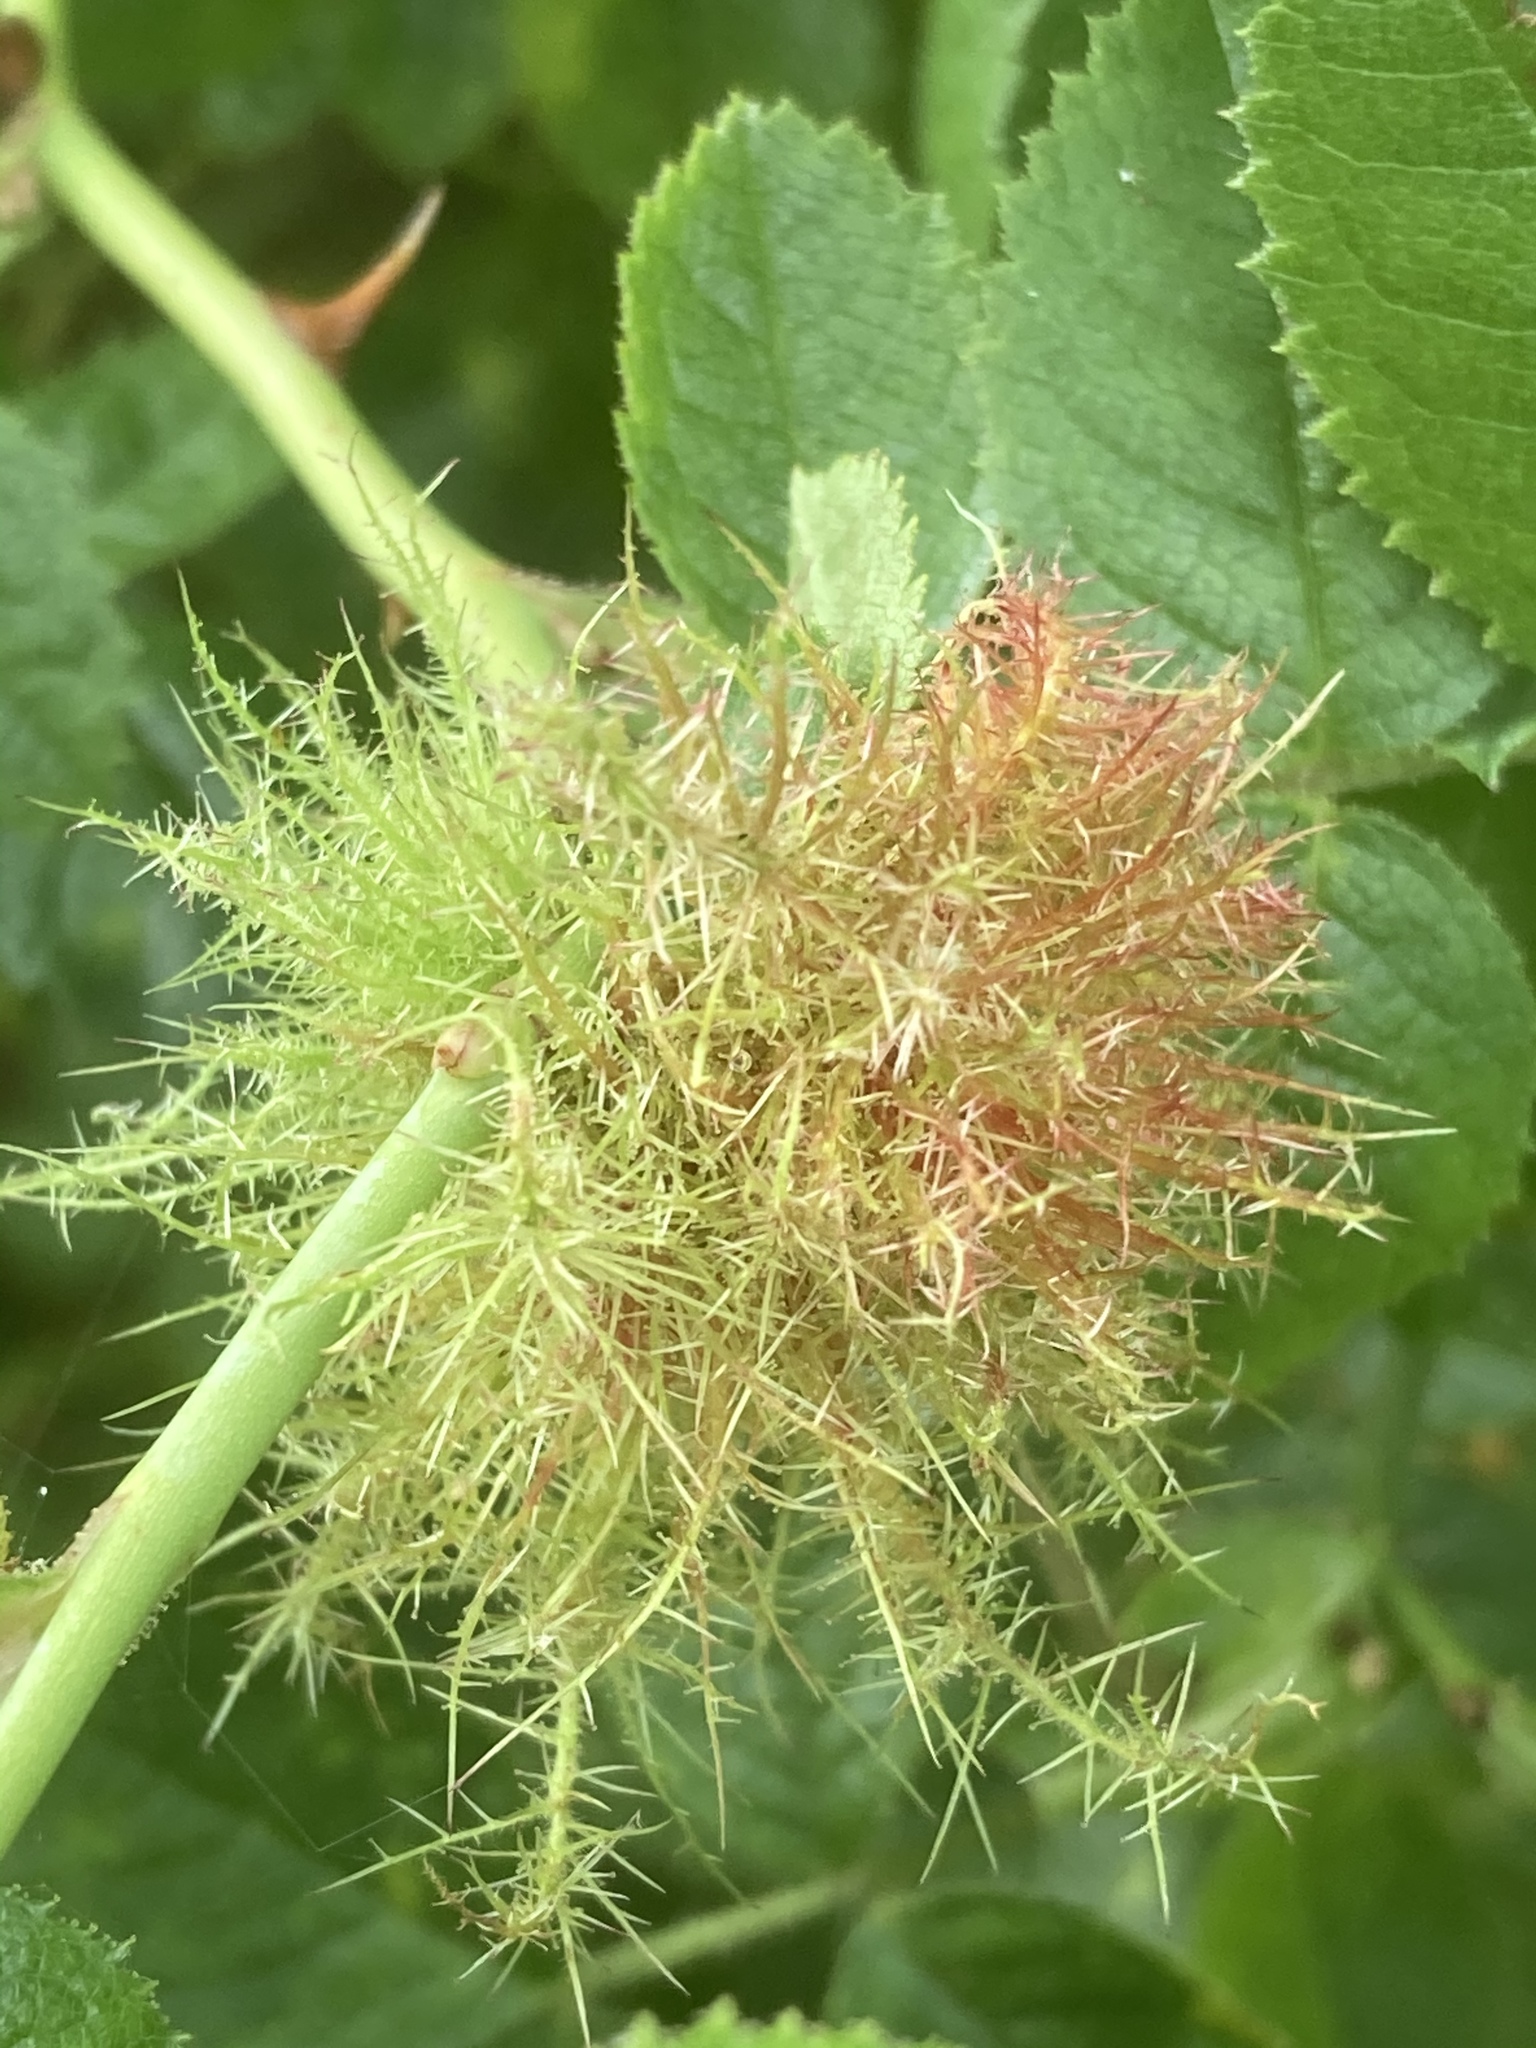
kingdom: Animalia
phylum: Arthropoda
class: Insecta
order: Hymenoptera
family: Cynipidae
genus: Diplolepis
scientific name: Diplolepis rosae
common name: Bedeguar gall
